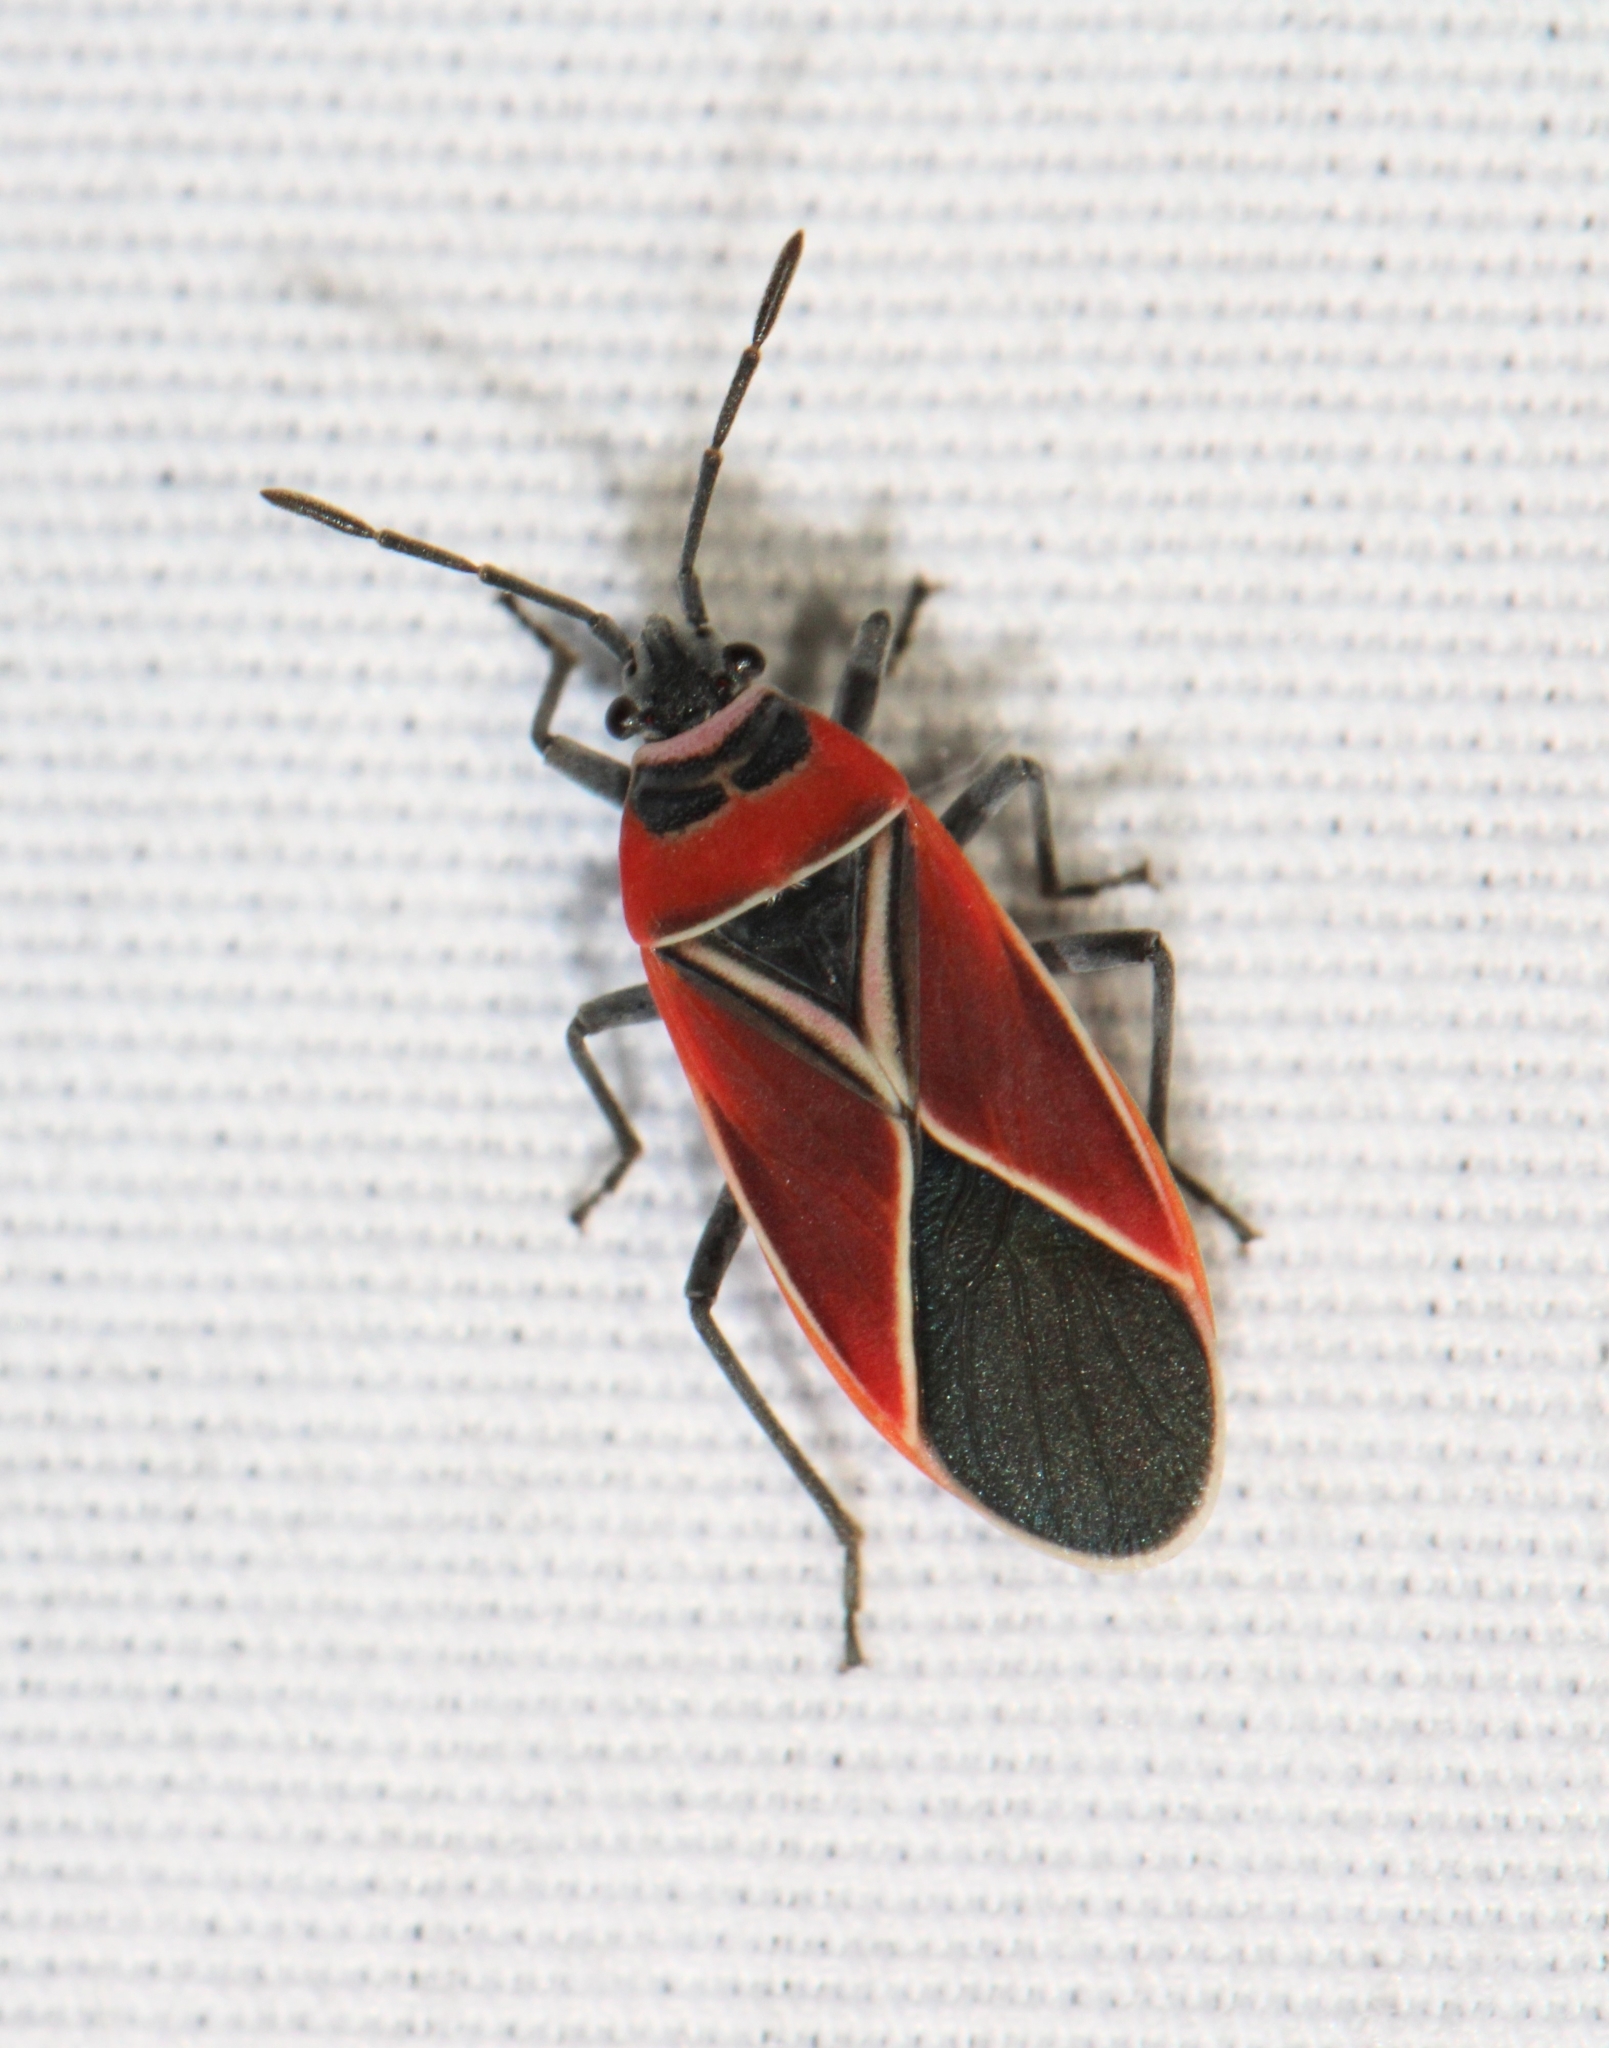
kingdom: Animalia
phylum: Arthropoda
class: Insecta
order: Hemiptera
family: Lygaeidae
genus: Neacoryphus
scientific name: Neacoryphus bicrucis
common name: Lygaeid bug
